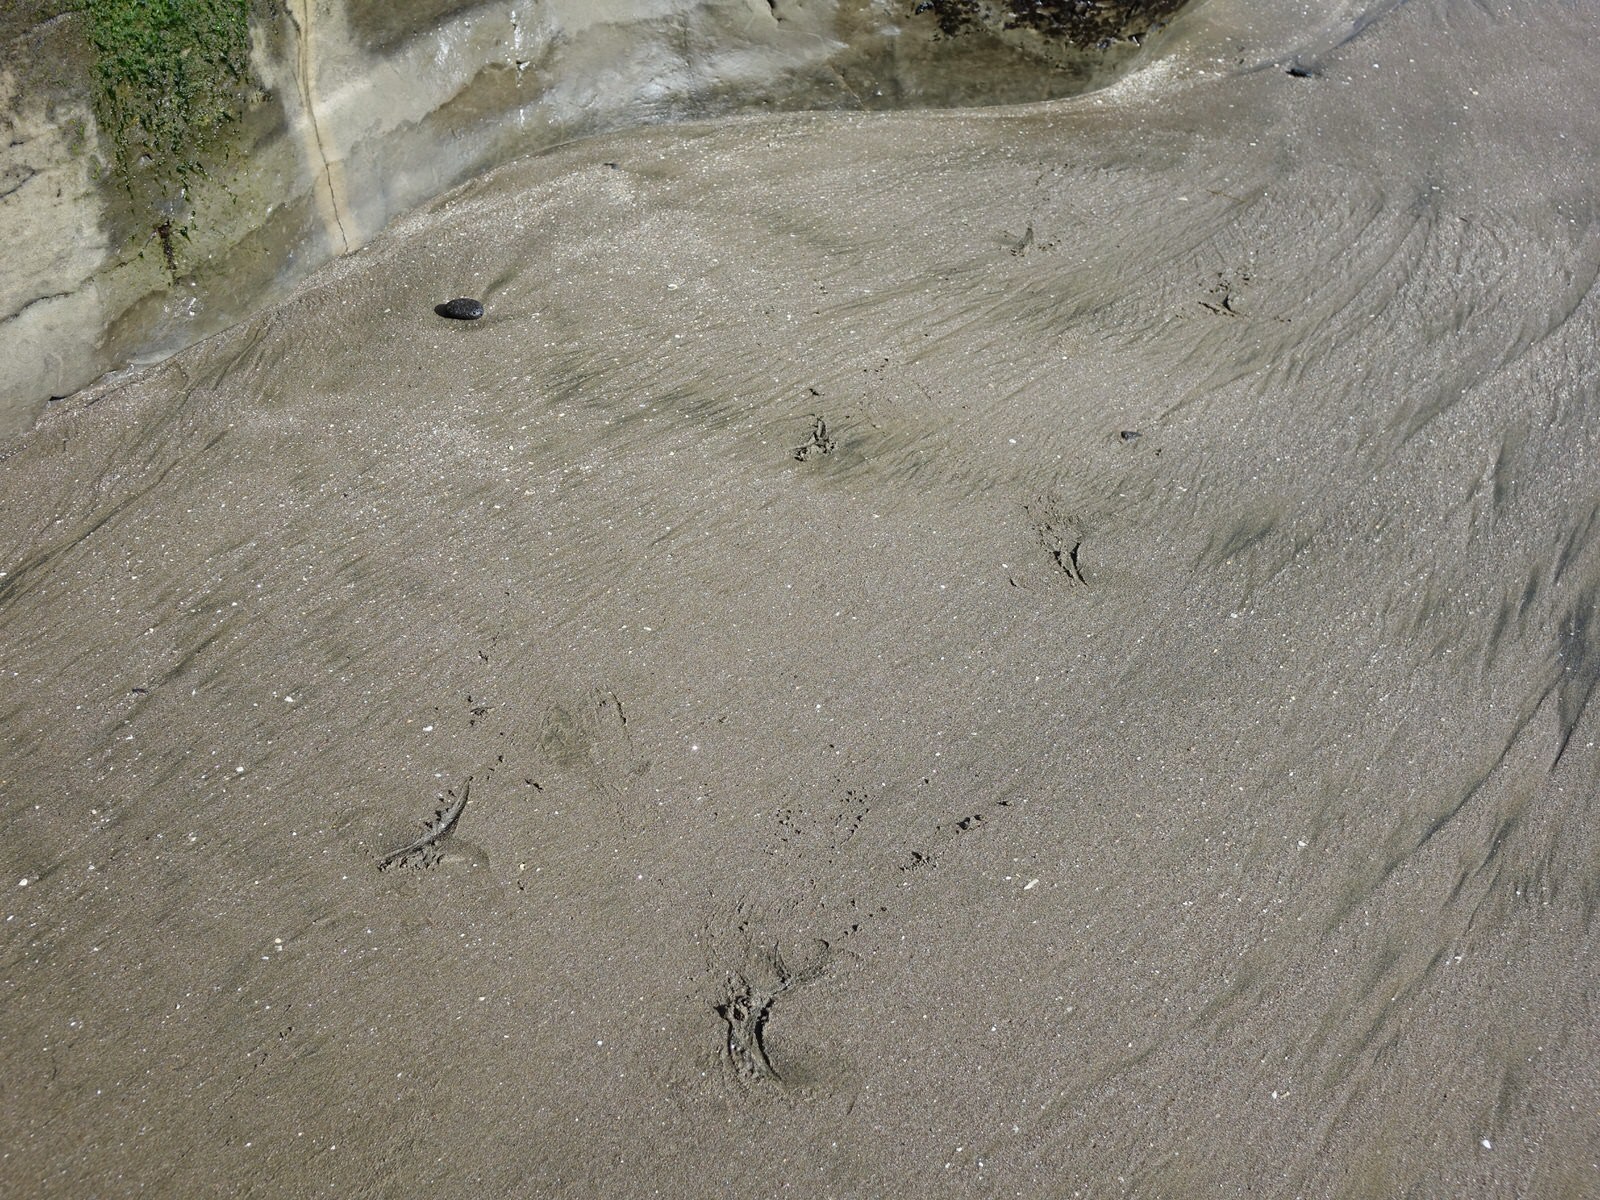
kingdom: Animalia
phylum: Chordata
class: Mammalia
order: Carnivora
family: Otariidae
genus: Arctocephalus
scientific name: Arctocephalus forsteri
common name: New zealand fur seal
